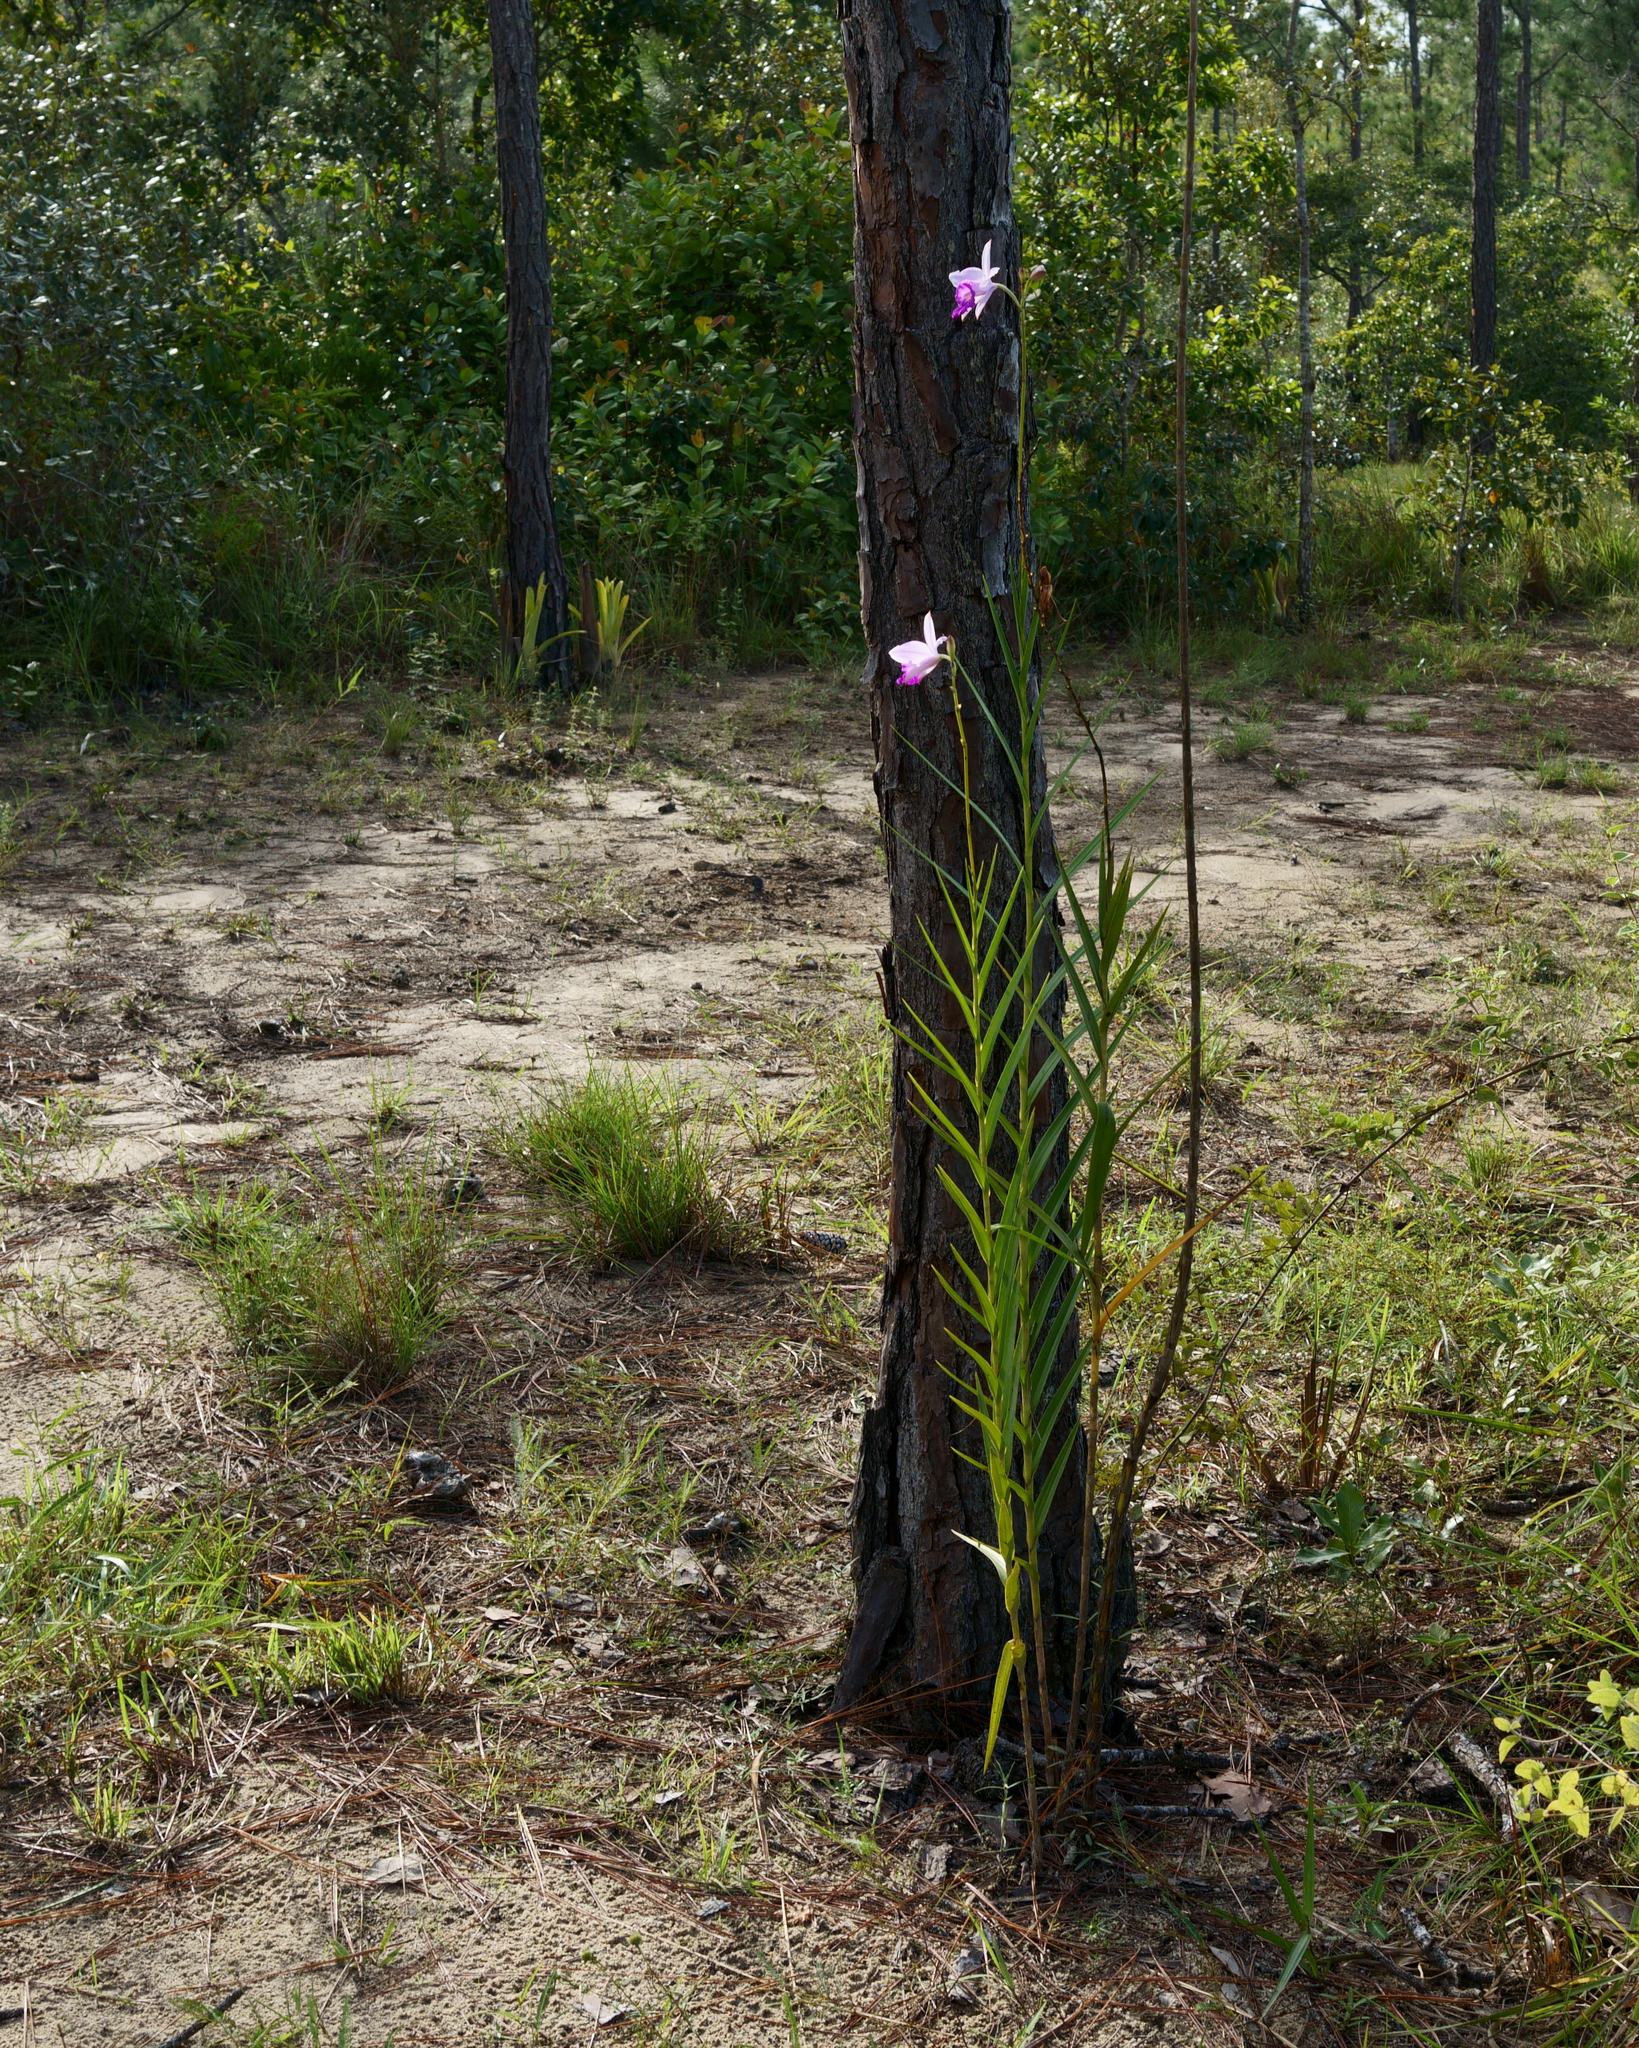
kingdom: Plantae
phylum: Tracheophyta
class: Liliopsida
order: Asparagales
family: Orchidaceae
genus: Arundina
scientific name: Arundina graminifolia
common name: Bamboo orchid
